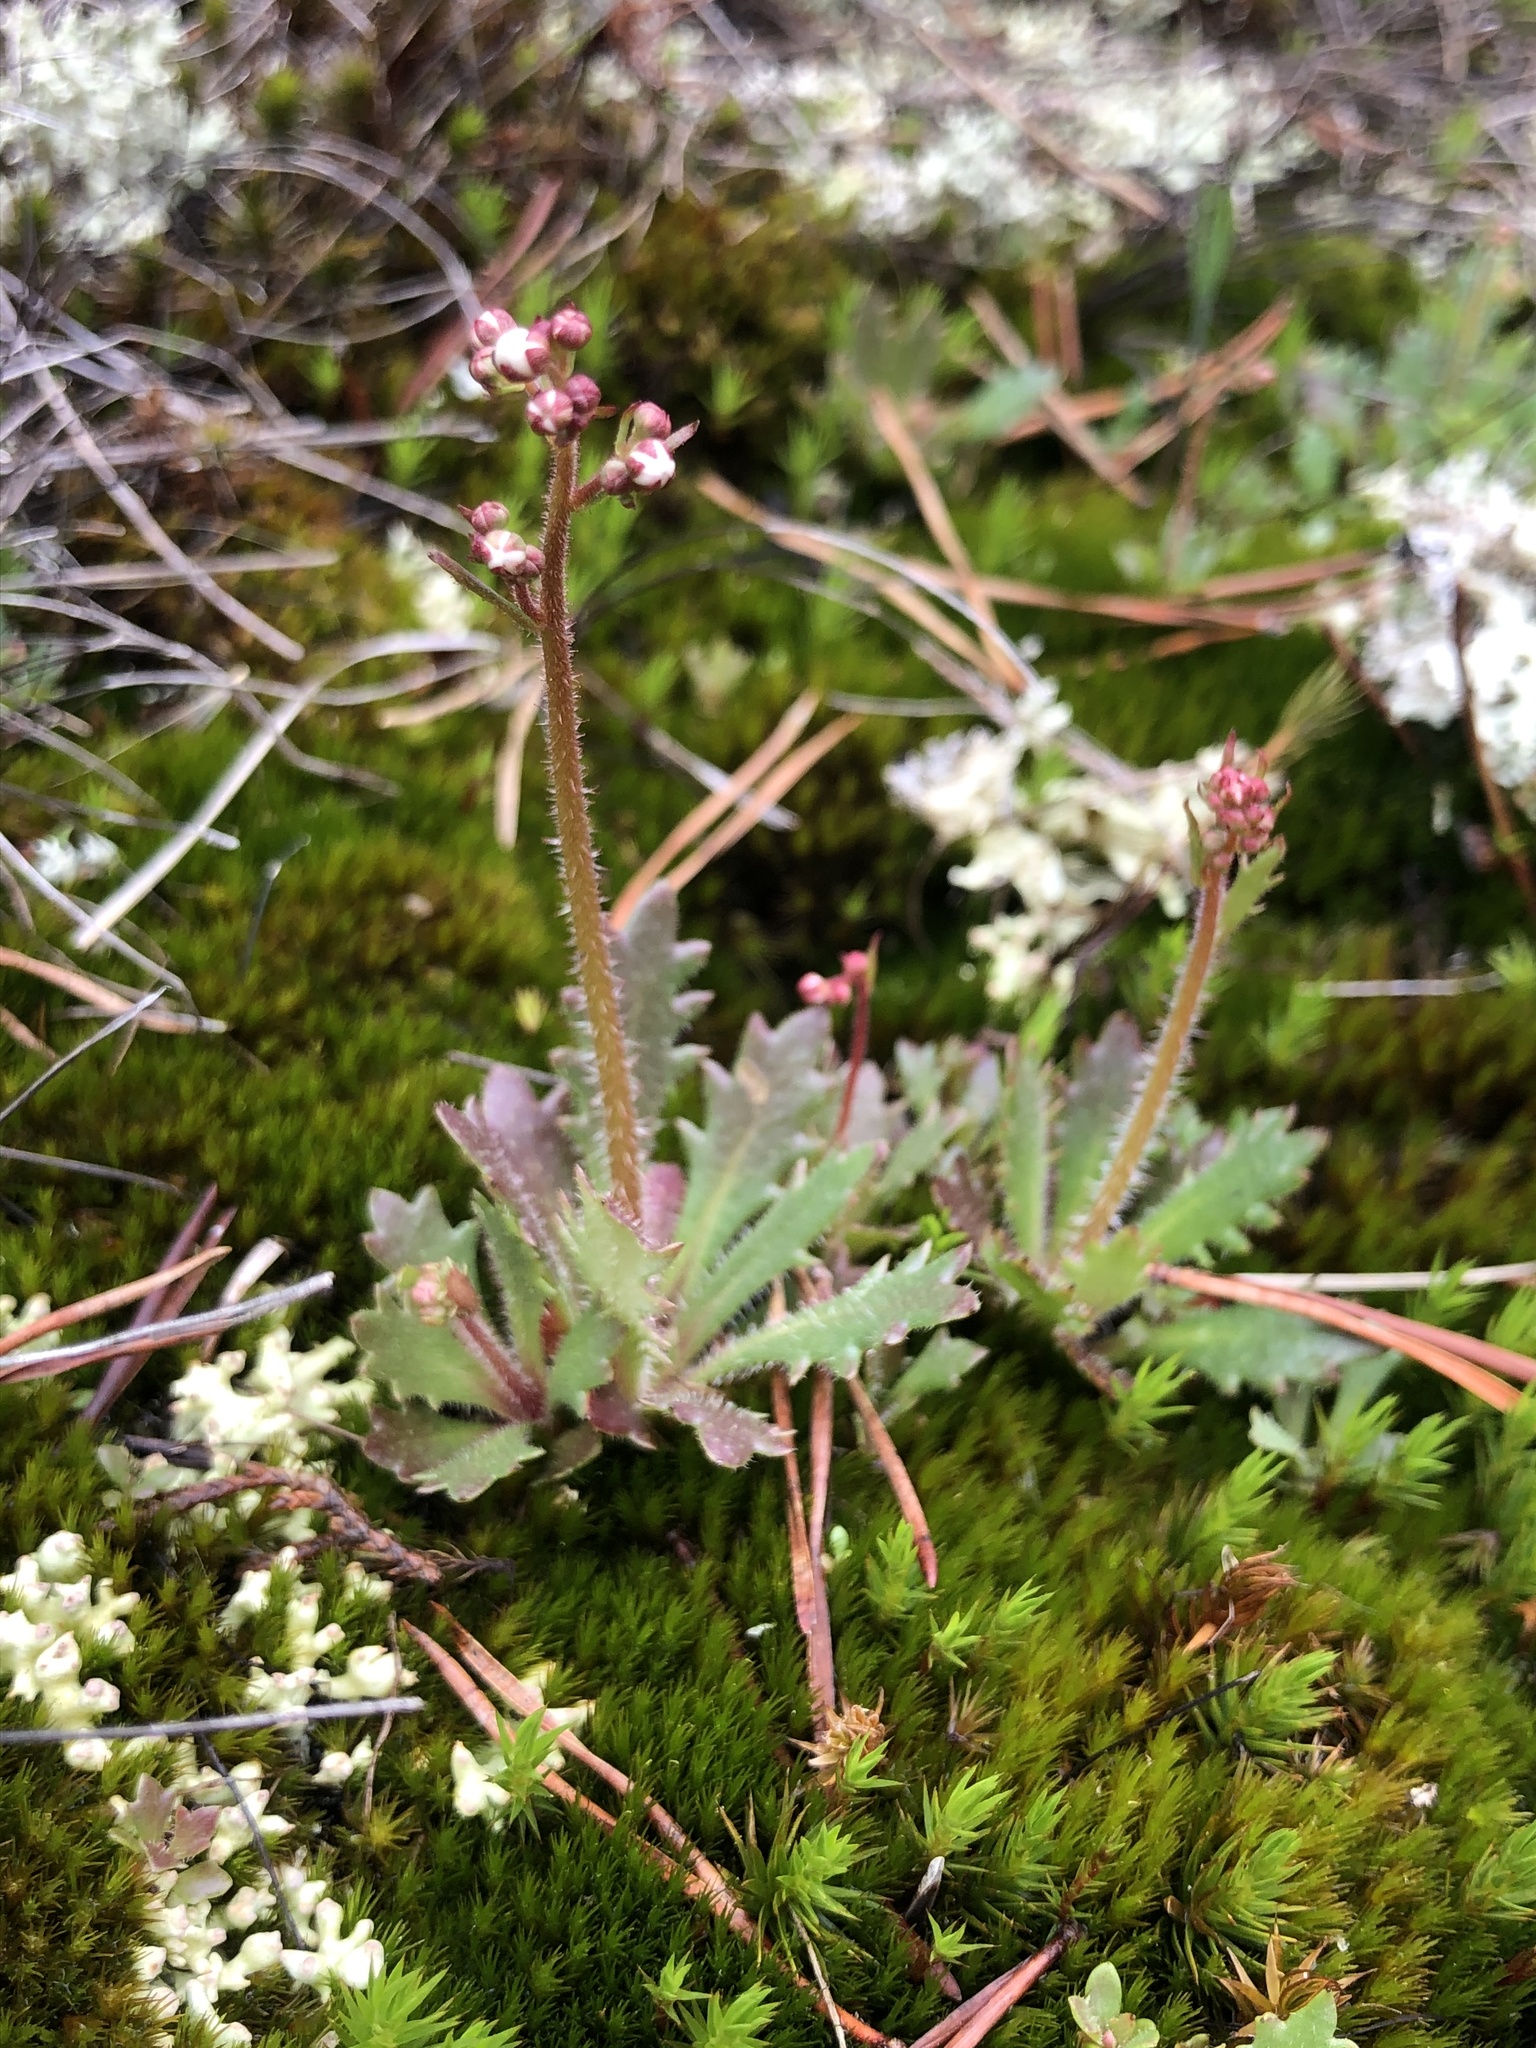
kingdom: Plantae
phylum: Tracheophyta
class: Magnoliopsida
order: Saxifragales
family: Saxifragaceae
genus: Micranthes
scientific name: Micranthes petiolaris
